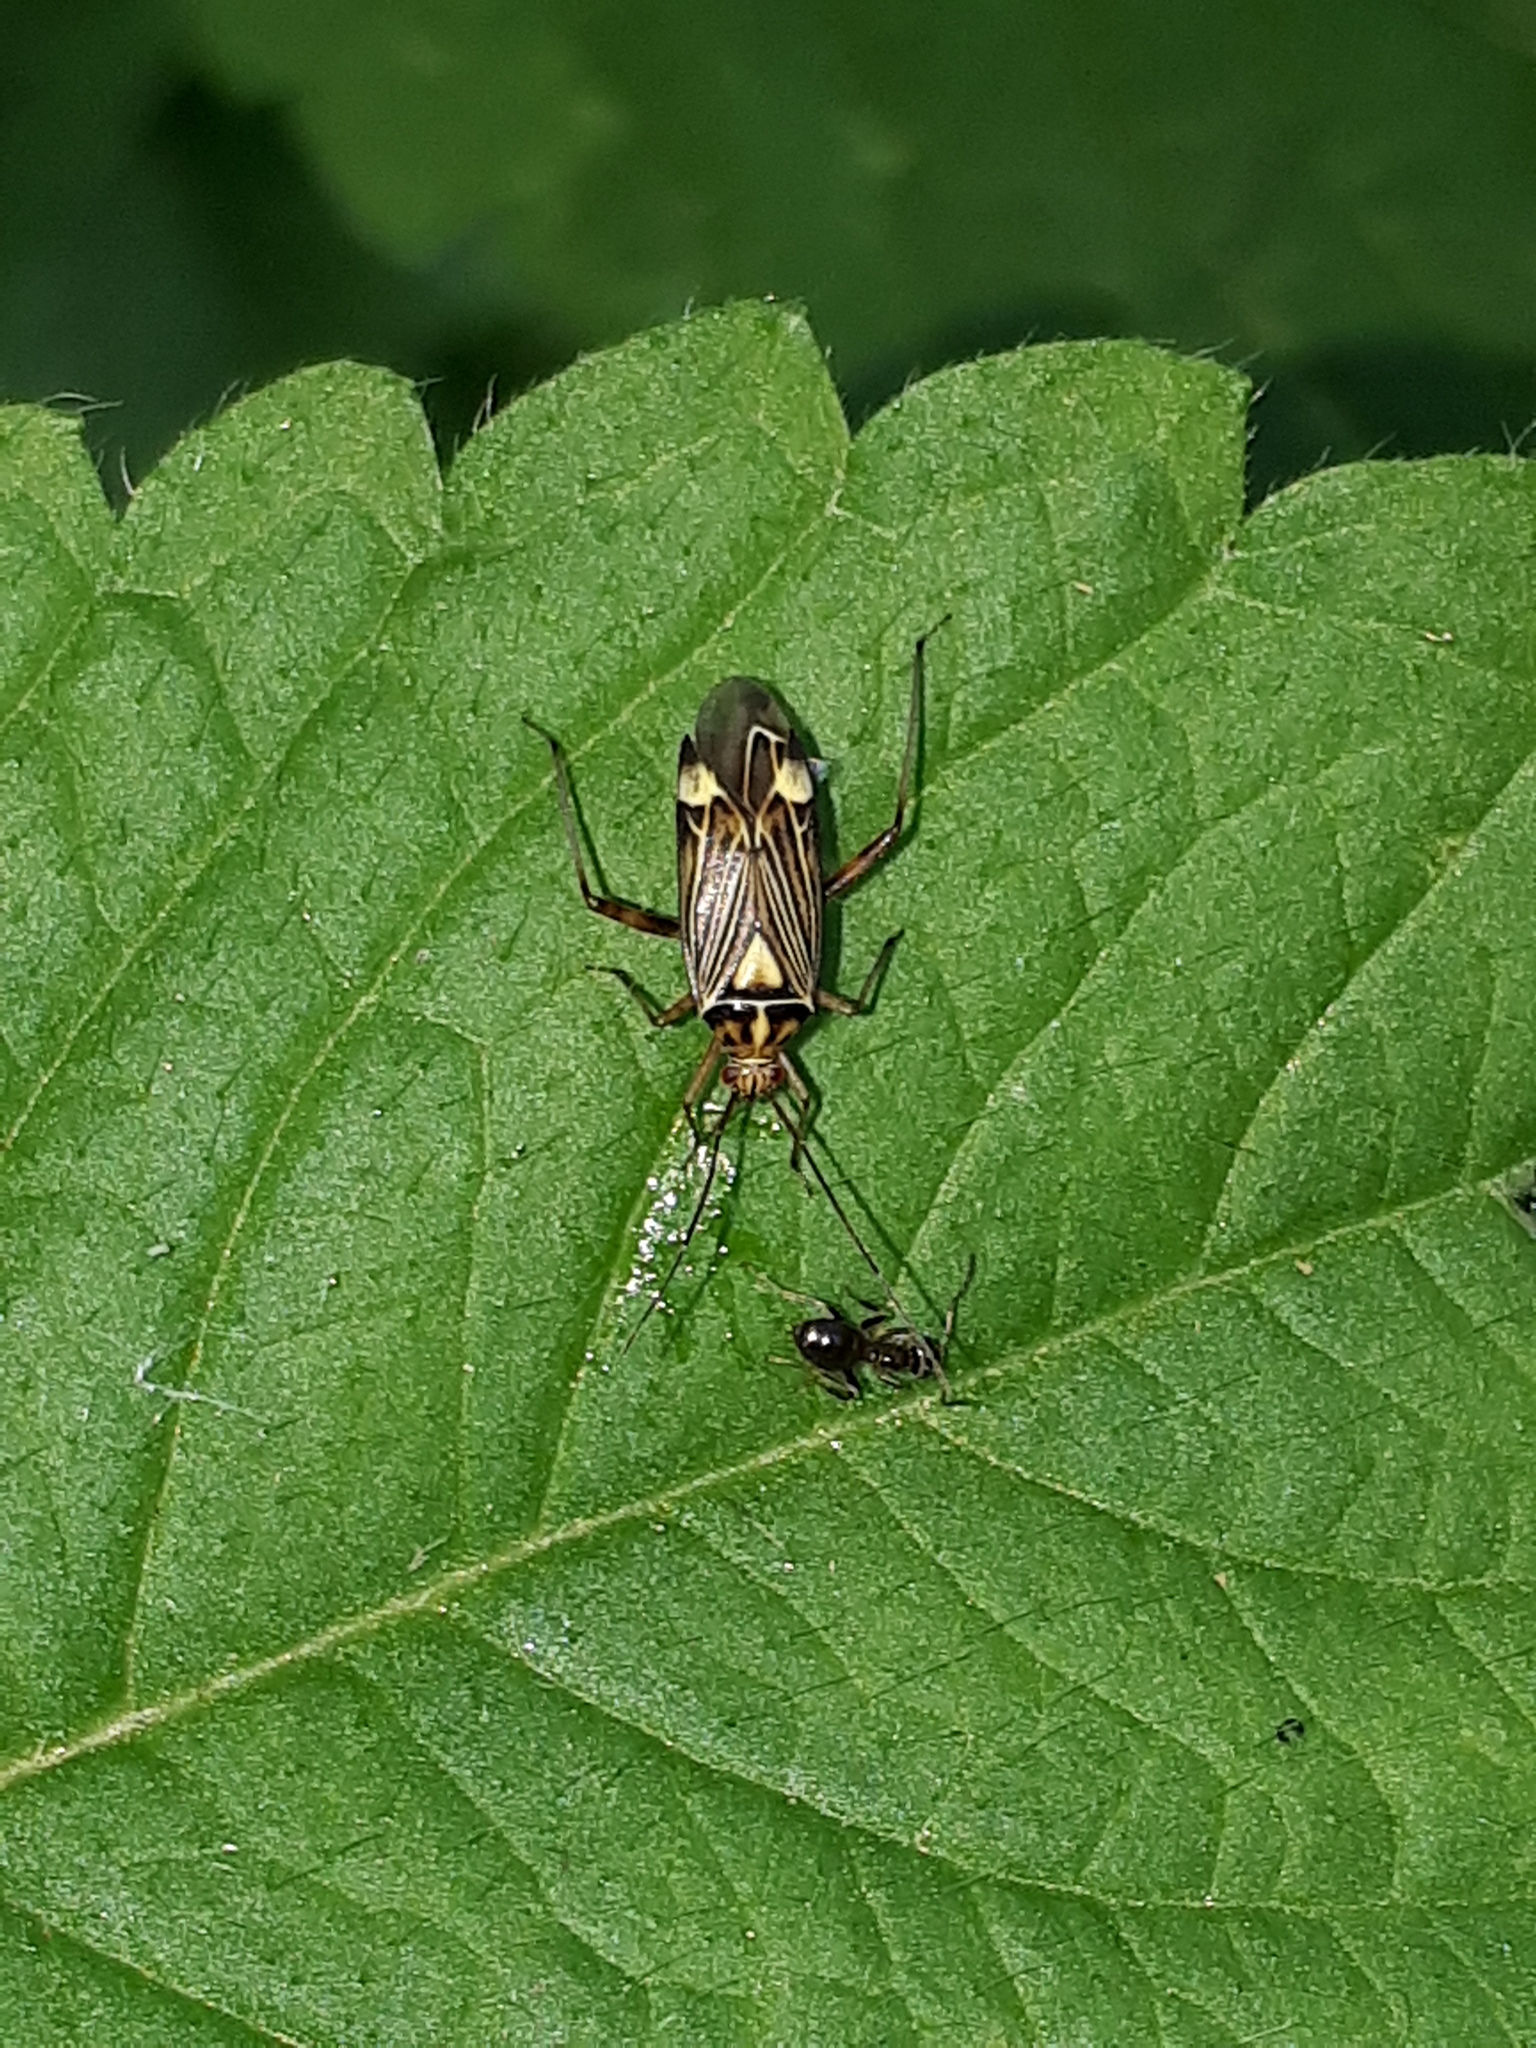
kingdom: Animalia
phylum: Arthropoda
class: Insecta
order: Hemiptera
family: Miridae
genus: Rhabdomiris
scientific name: Rhabdomiris striatellus
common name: Plant bug
